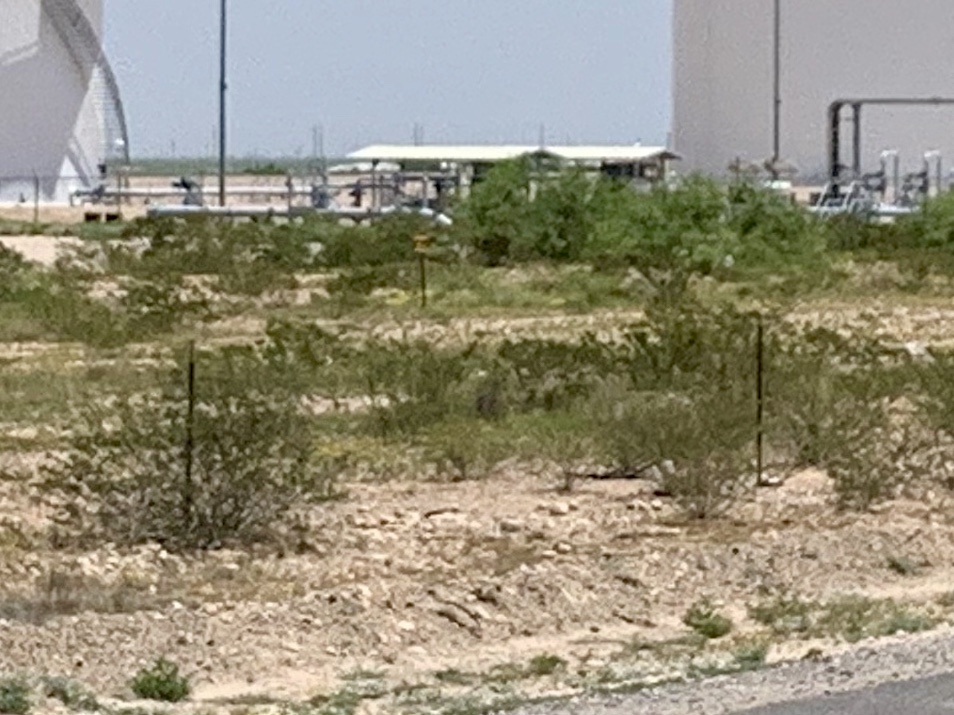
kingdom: Plantae
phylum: Tracheophyta
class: Magnoliopsida
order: Zygophyllales
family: Zygophyllaceae
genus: Larrea
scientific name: Larrea tridentata
